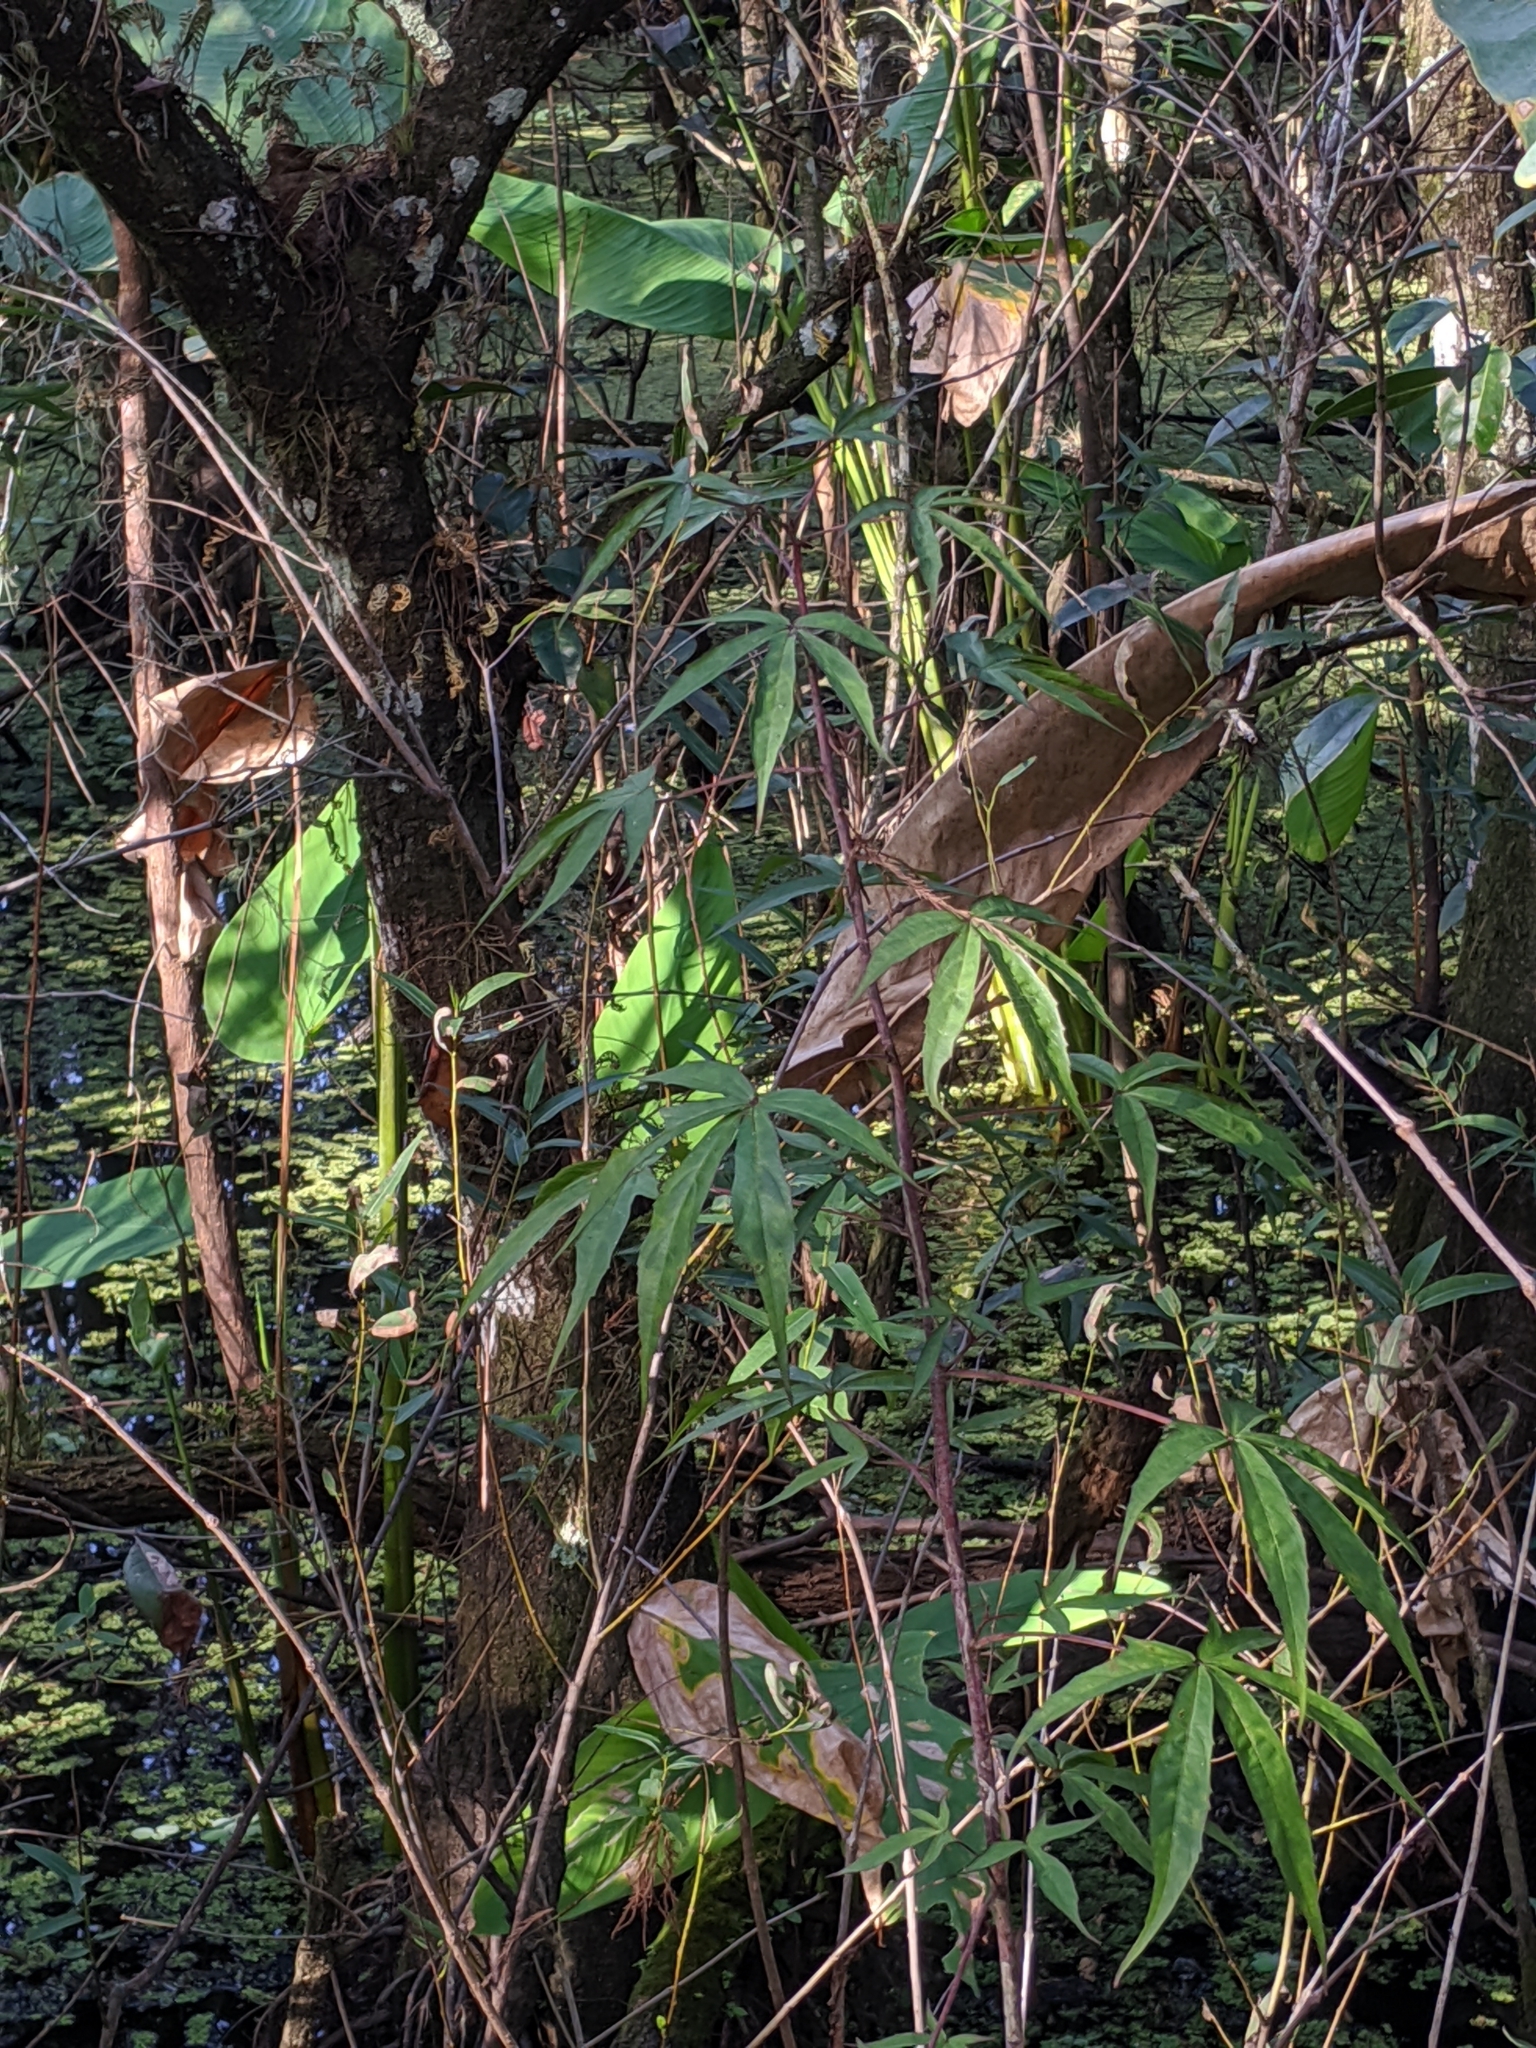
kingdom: Plantae
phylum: Tracheophyta
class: Magnoliopsida
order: Malvales
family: Malvaceae
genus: Hibiscus
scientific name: Hibiscus coccineus
